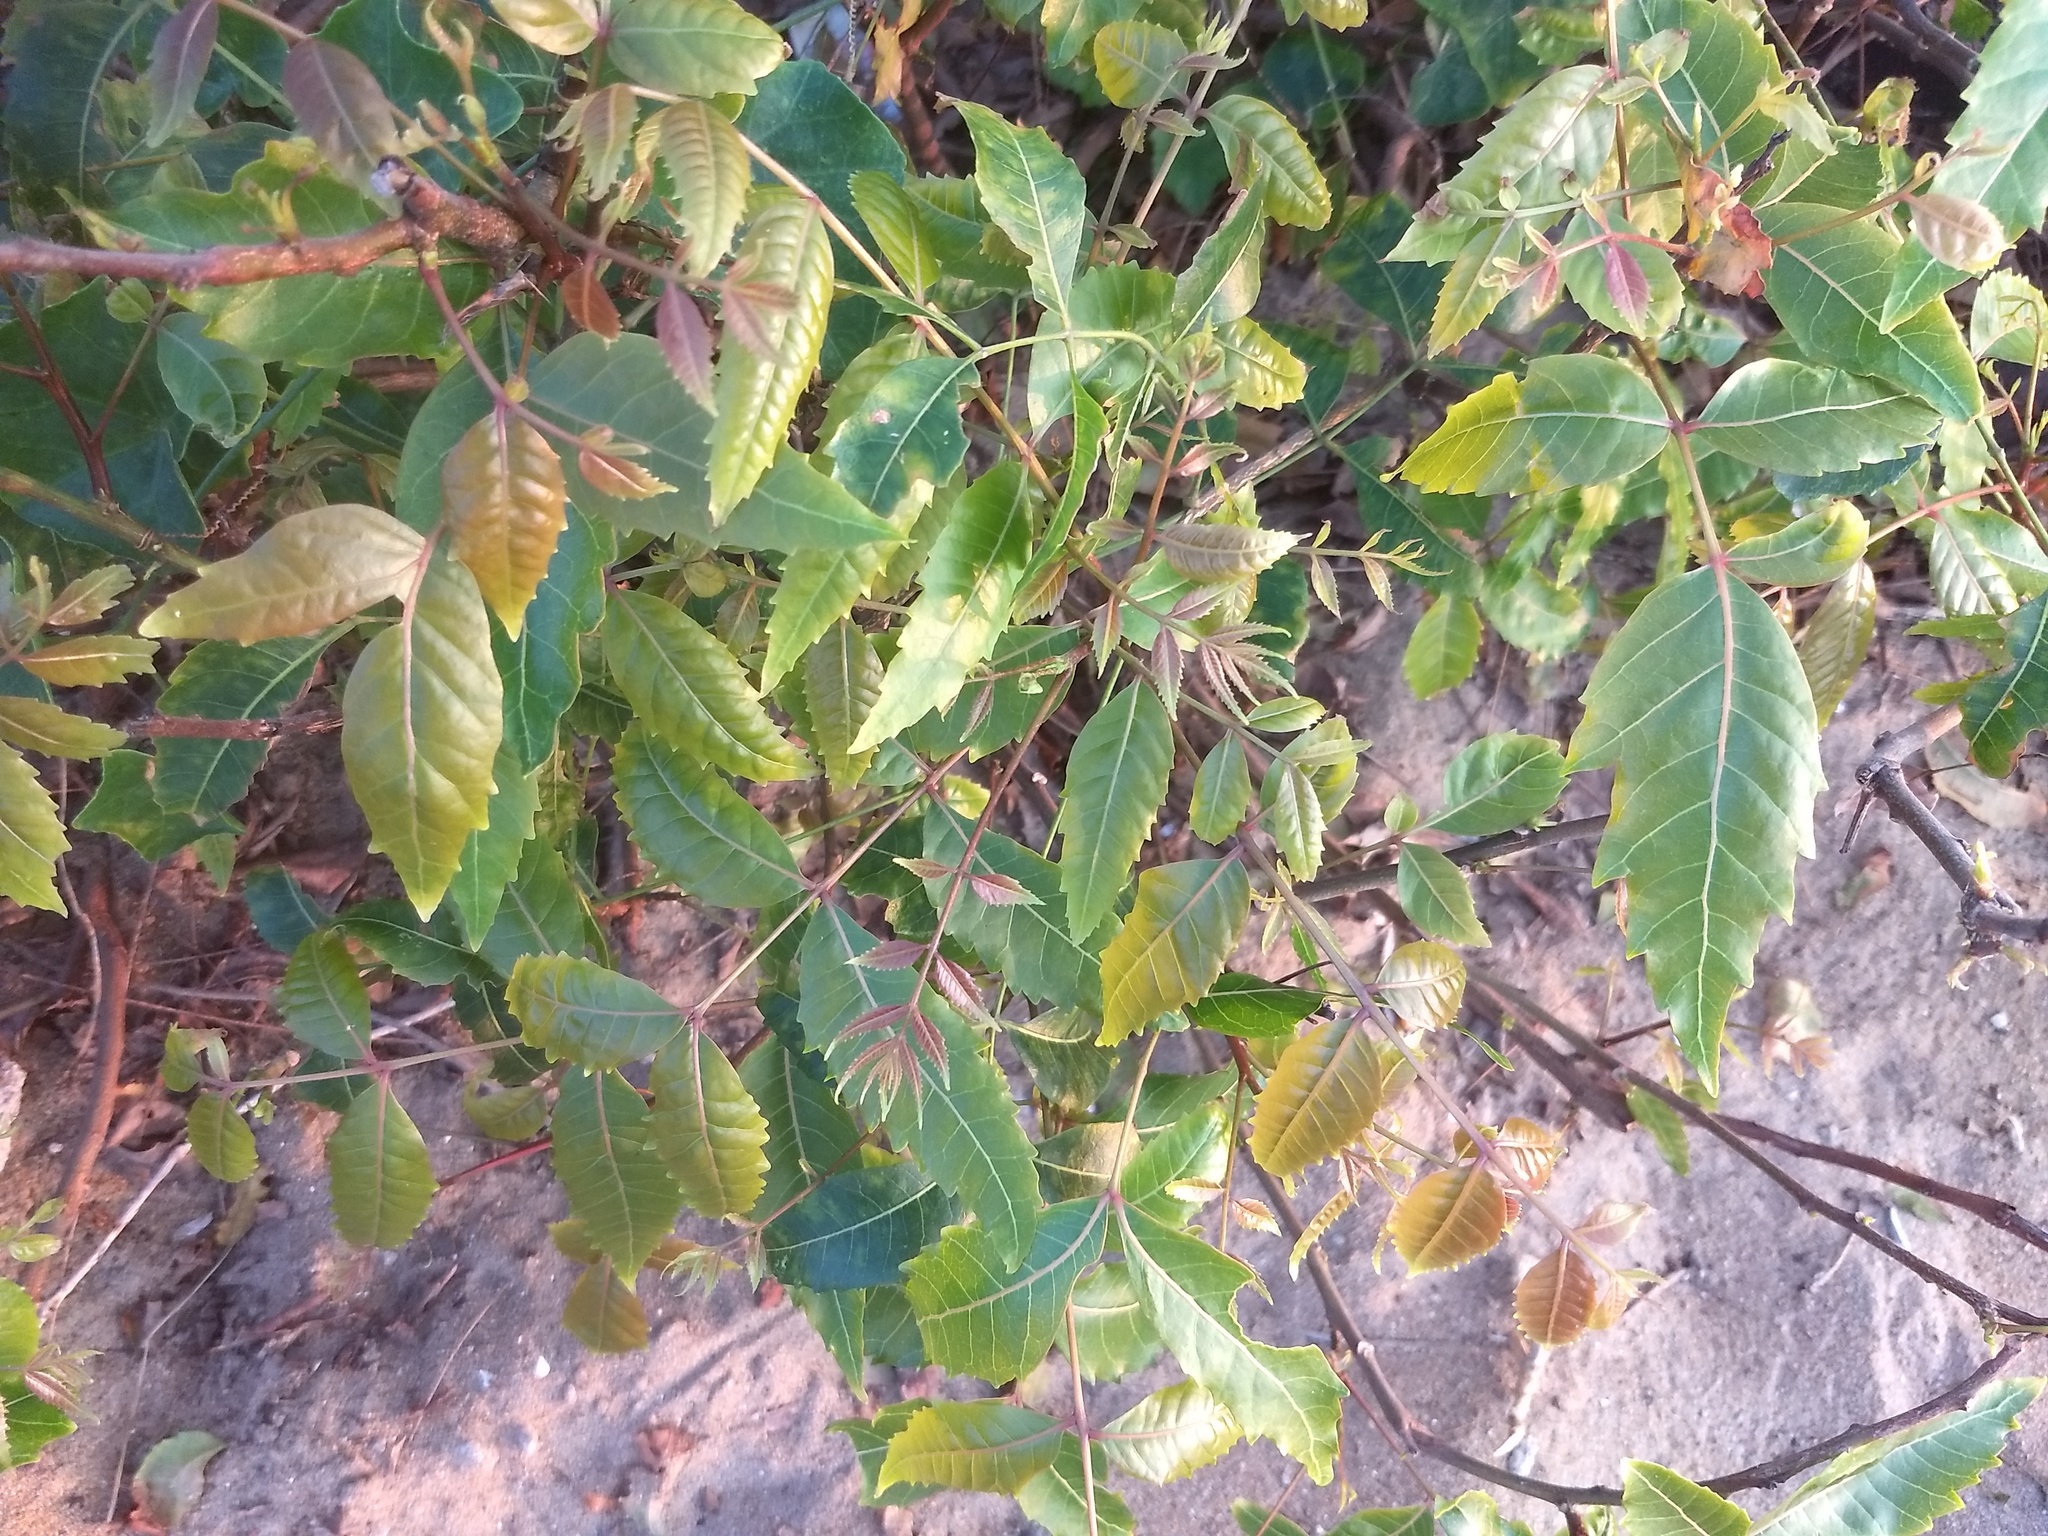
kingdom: Plantae
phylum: Tracheophyta
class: Magnoliopsida
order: Sapindales
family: Meliaceae
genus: Azadirachta
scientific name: Azadirachta indica
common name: Neem
